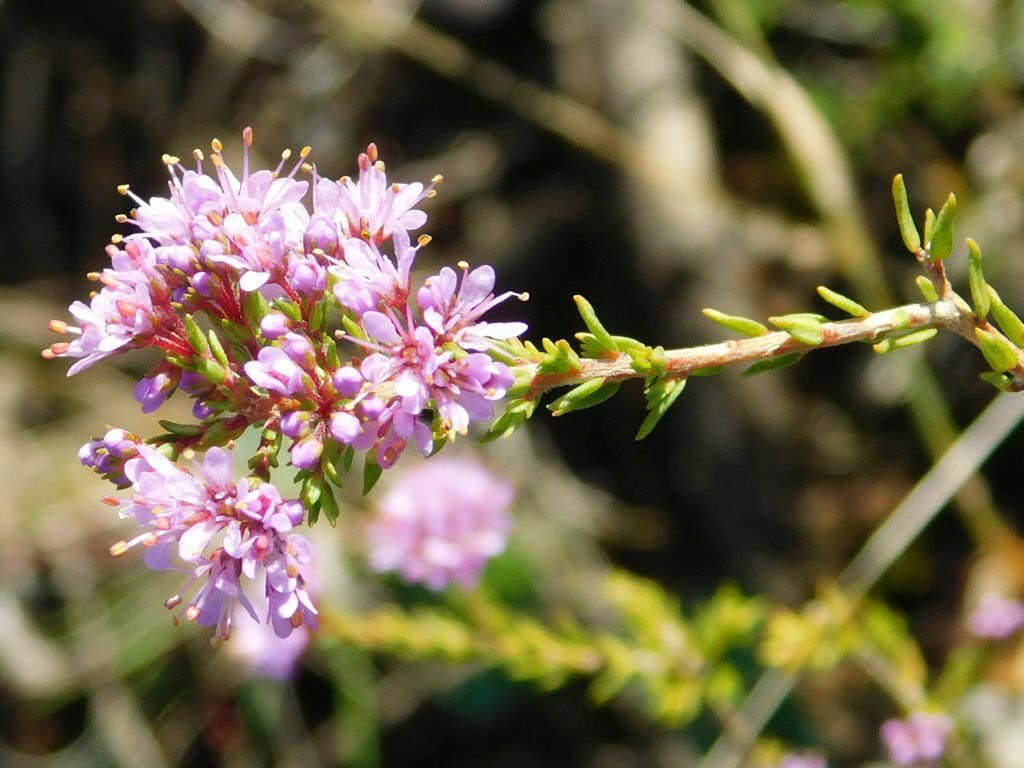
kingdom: Plantae
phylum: Tracheophyta
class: Magnoliopsida
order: Sapindales
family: Rutaceae
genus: Agathosma
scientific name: Agathosma capensis
